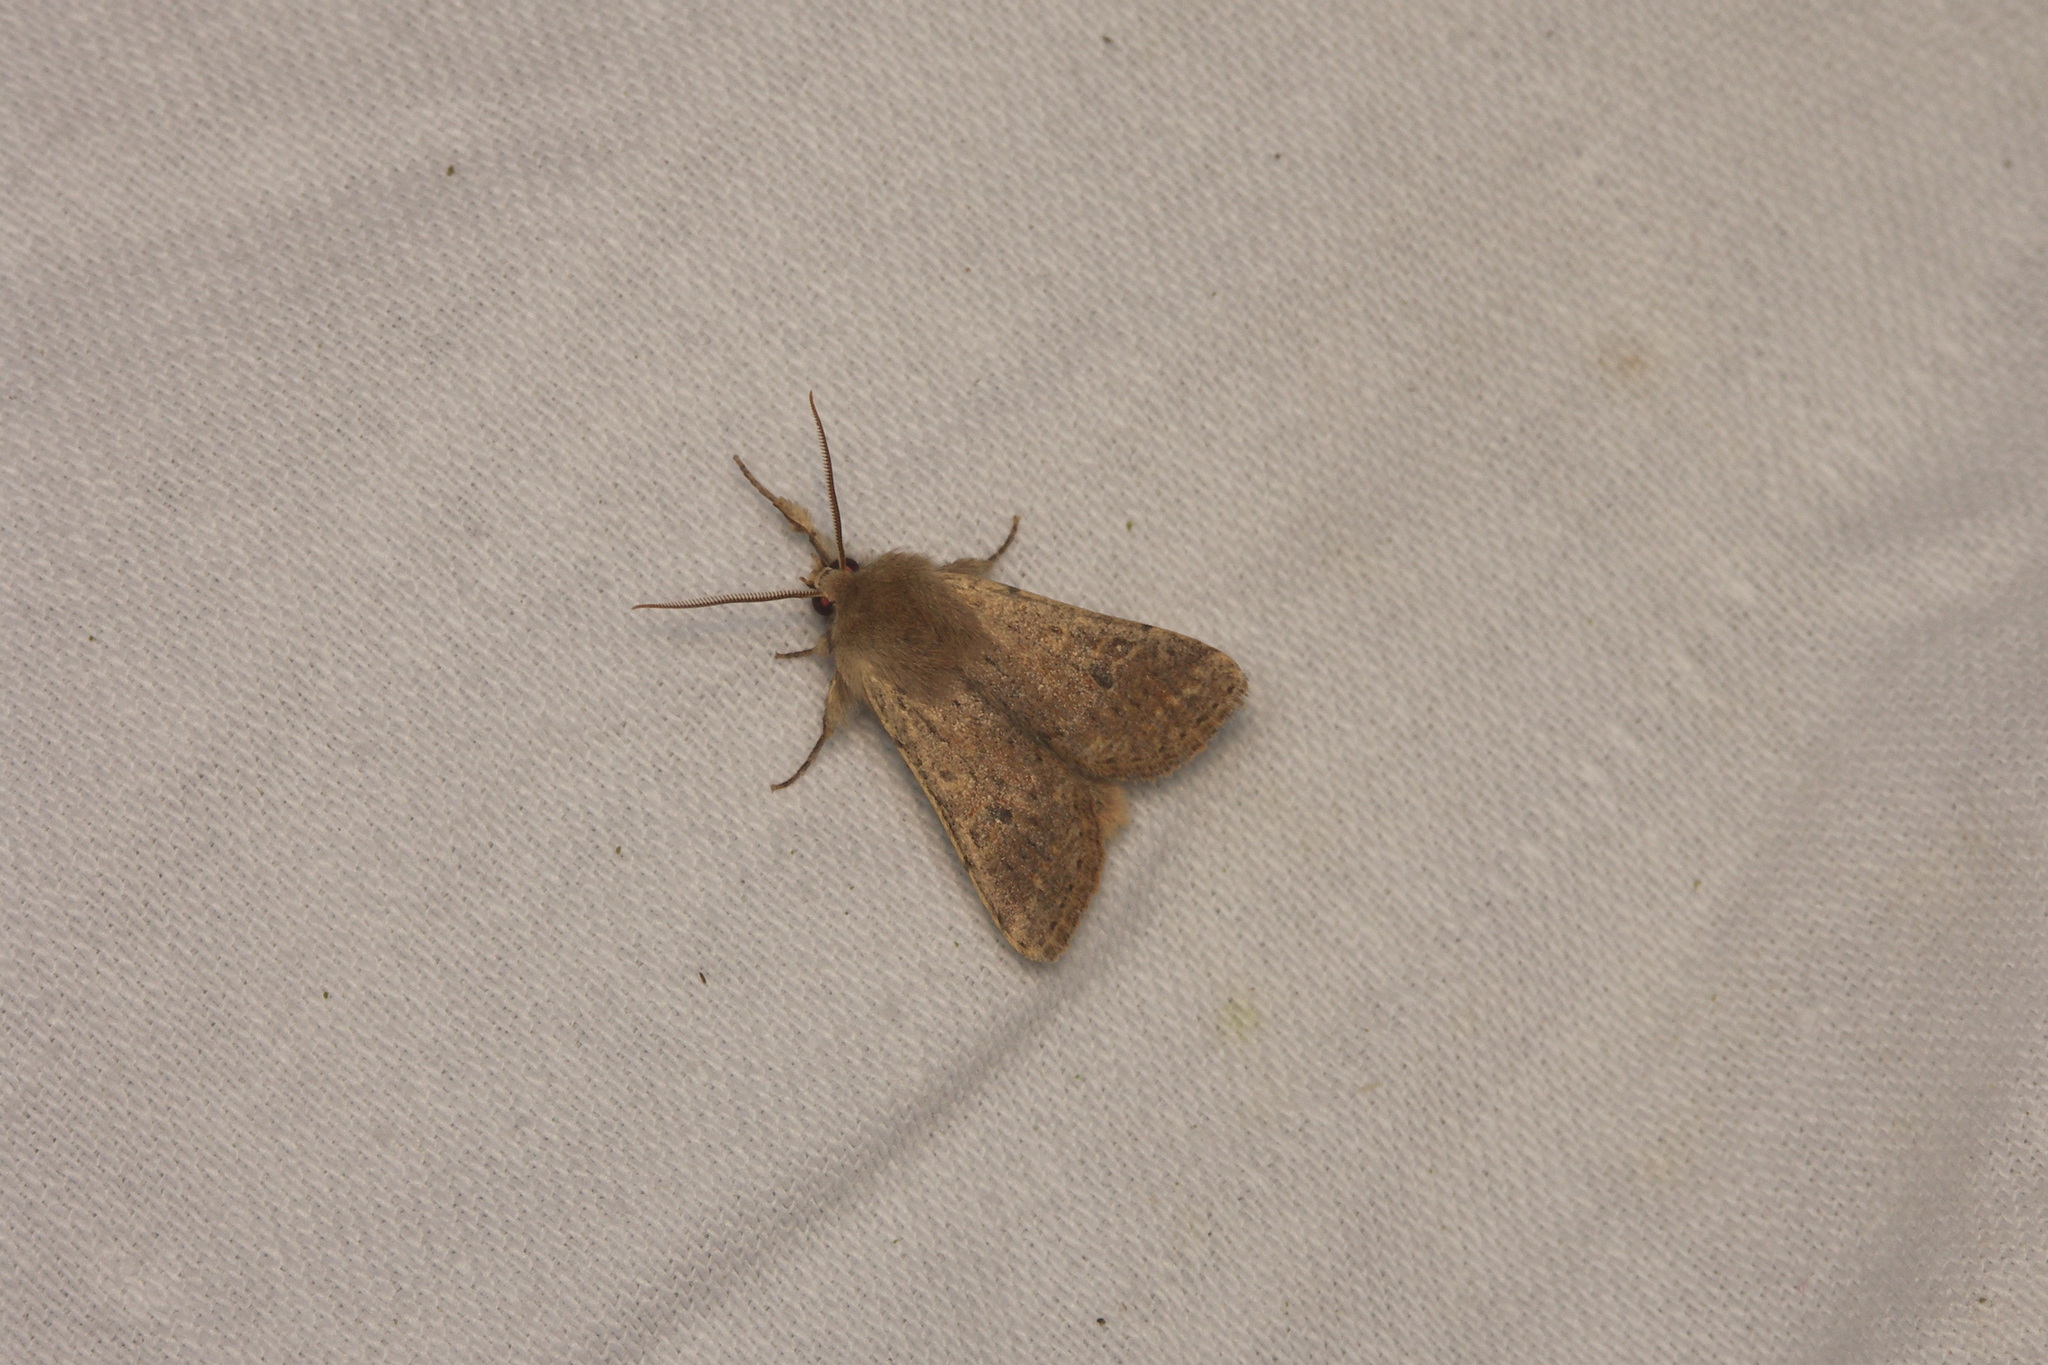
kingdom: Animalia
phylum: Arthropoda
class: Insecta
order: Lepidoptera
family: Noctuidae
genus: Orthosia
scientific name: Orthosia cruda
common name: Small quaker
